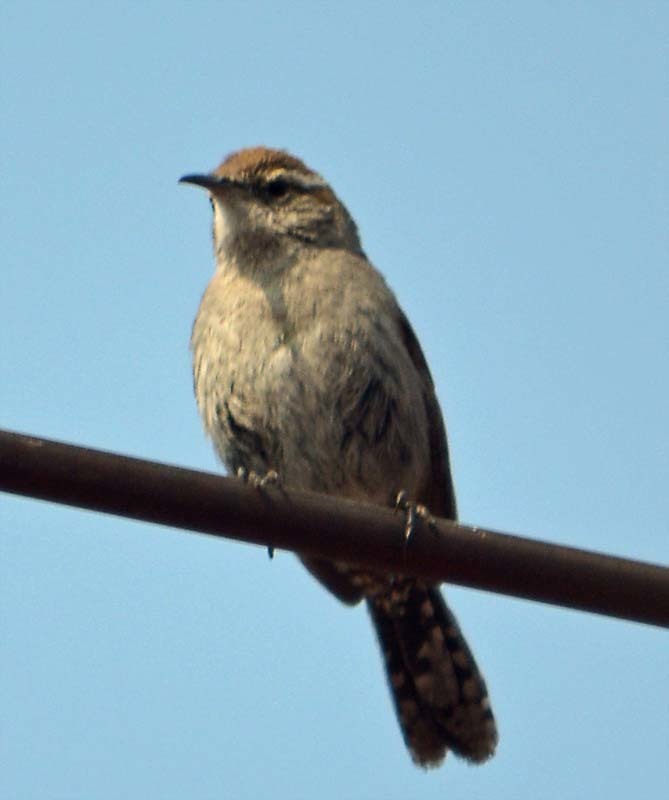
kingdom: Animalia
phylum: Chordata
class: Aves
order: Passeriformes
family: Troglodytidae
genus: Thryomanes
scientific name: Thryomanes bewickii
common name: Bewick's wren
